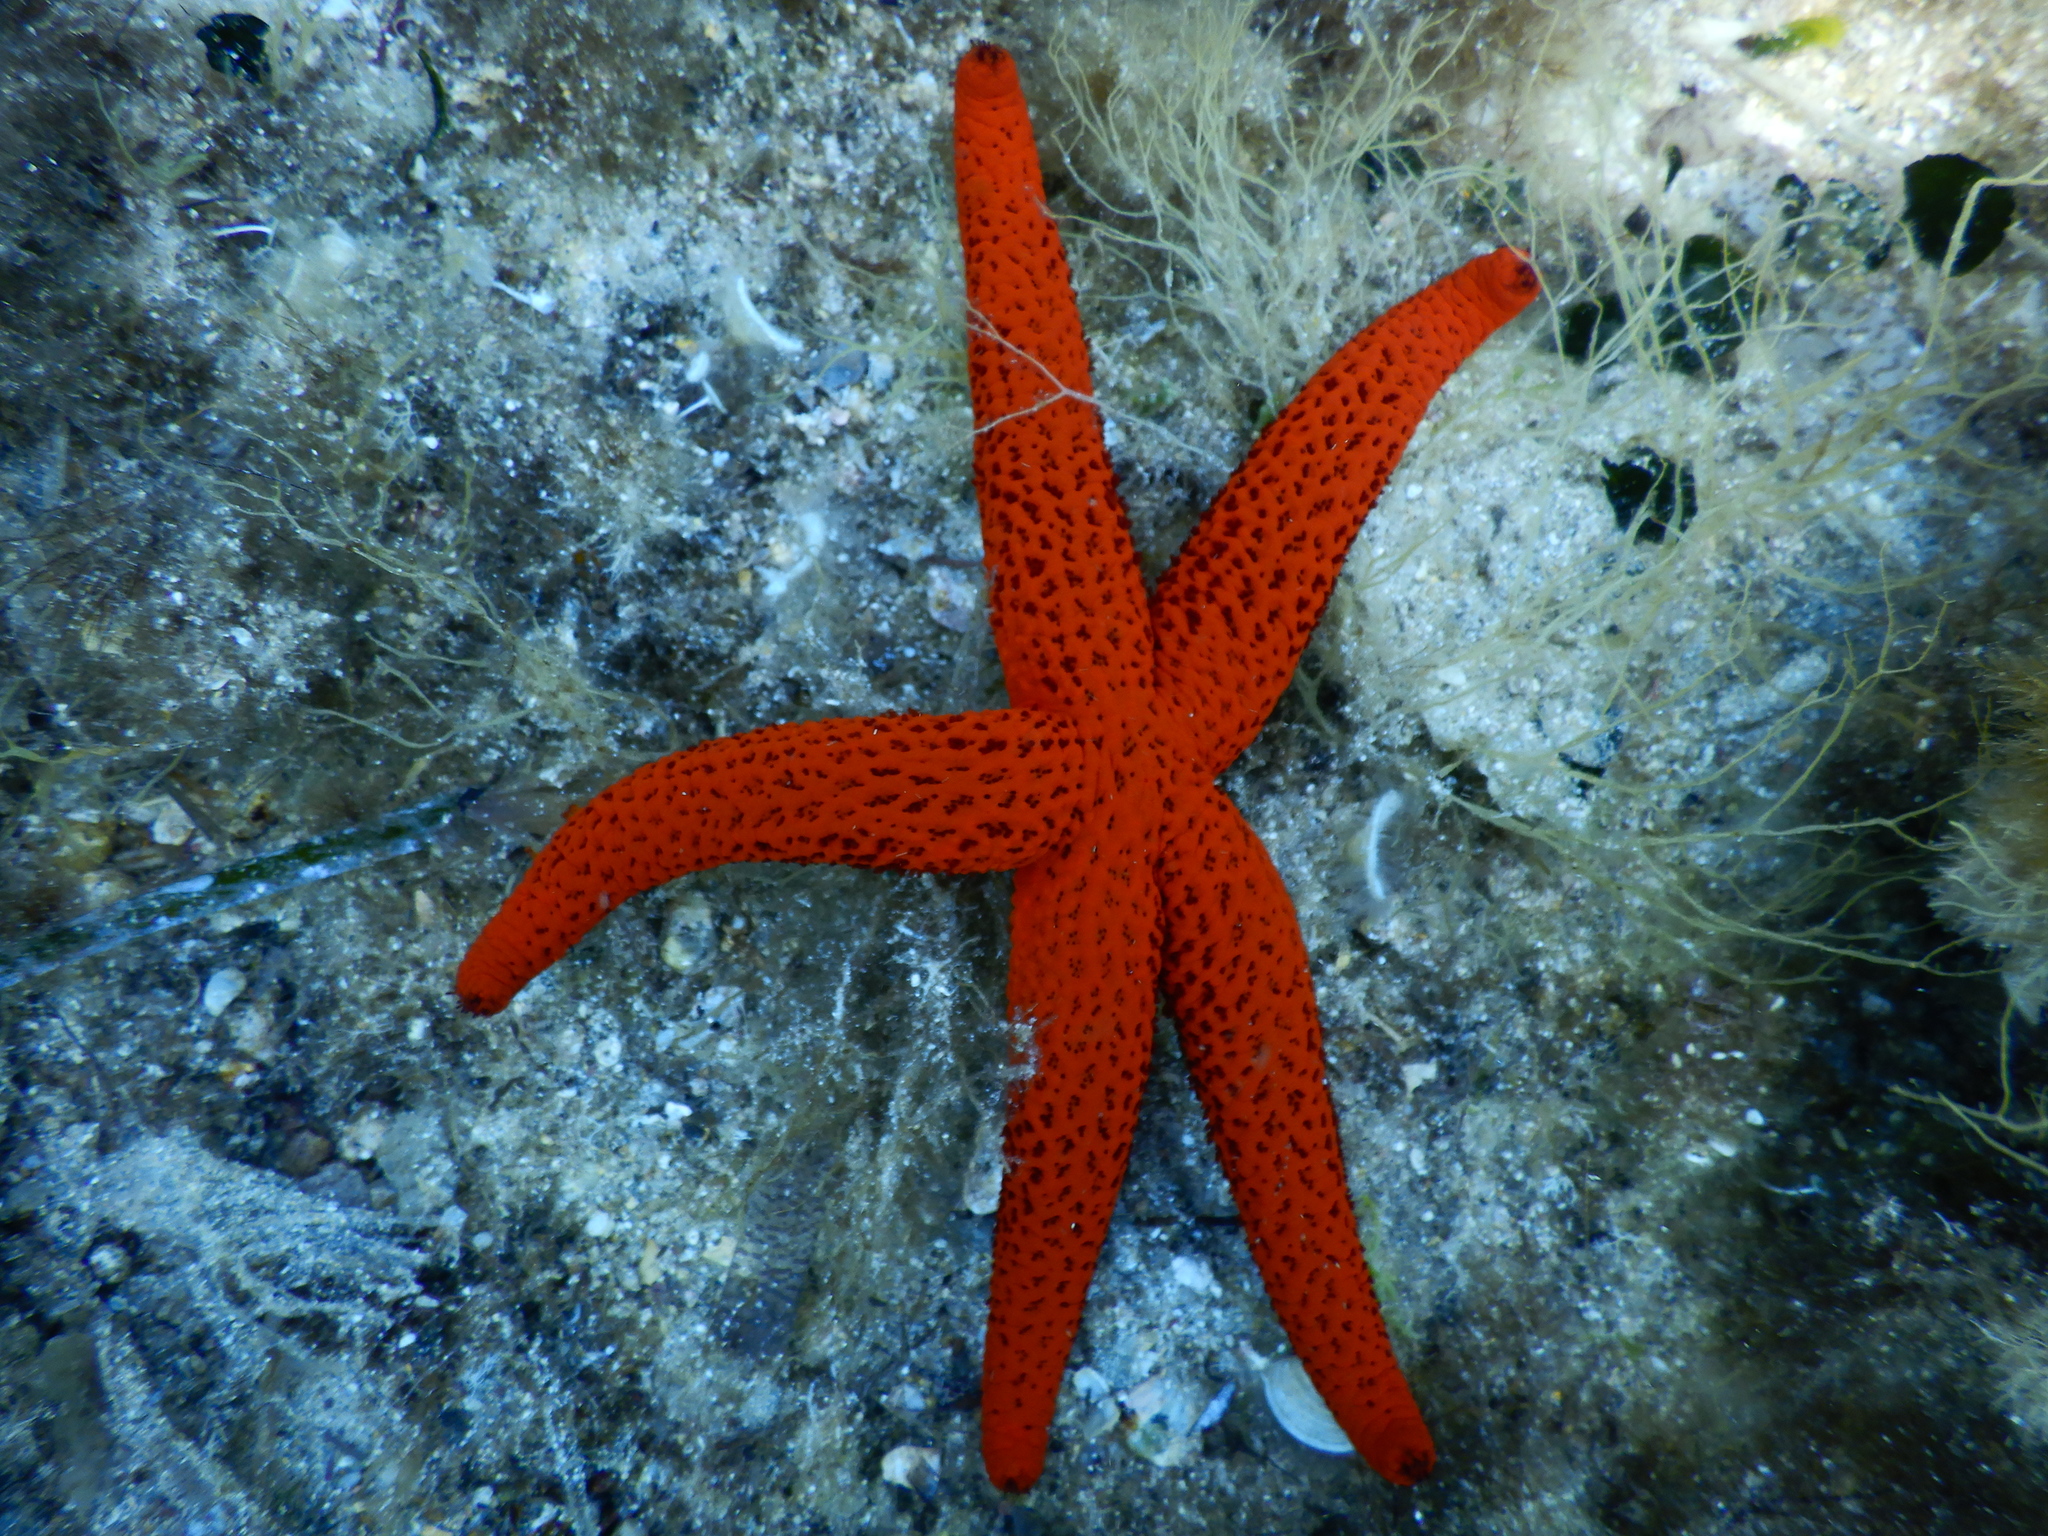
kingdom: Animalia
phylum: Echinodermata
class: Asteroidea
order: Spinulosida
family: Echinasteridae
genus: Echinaster
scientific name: Echinaster sepositus
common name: Red starfish
